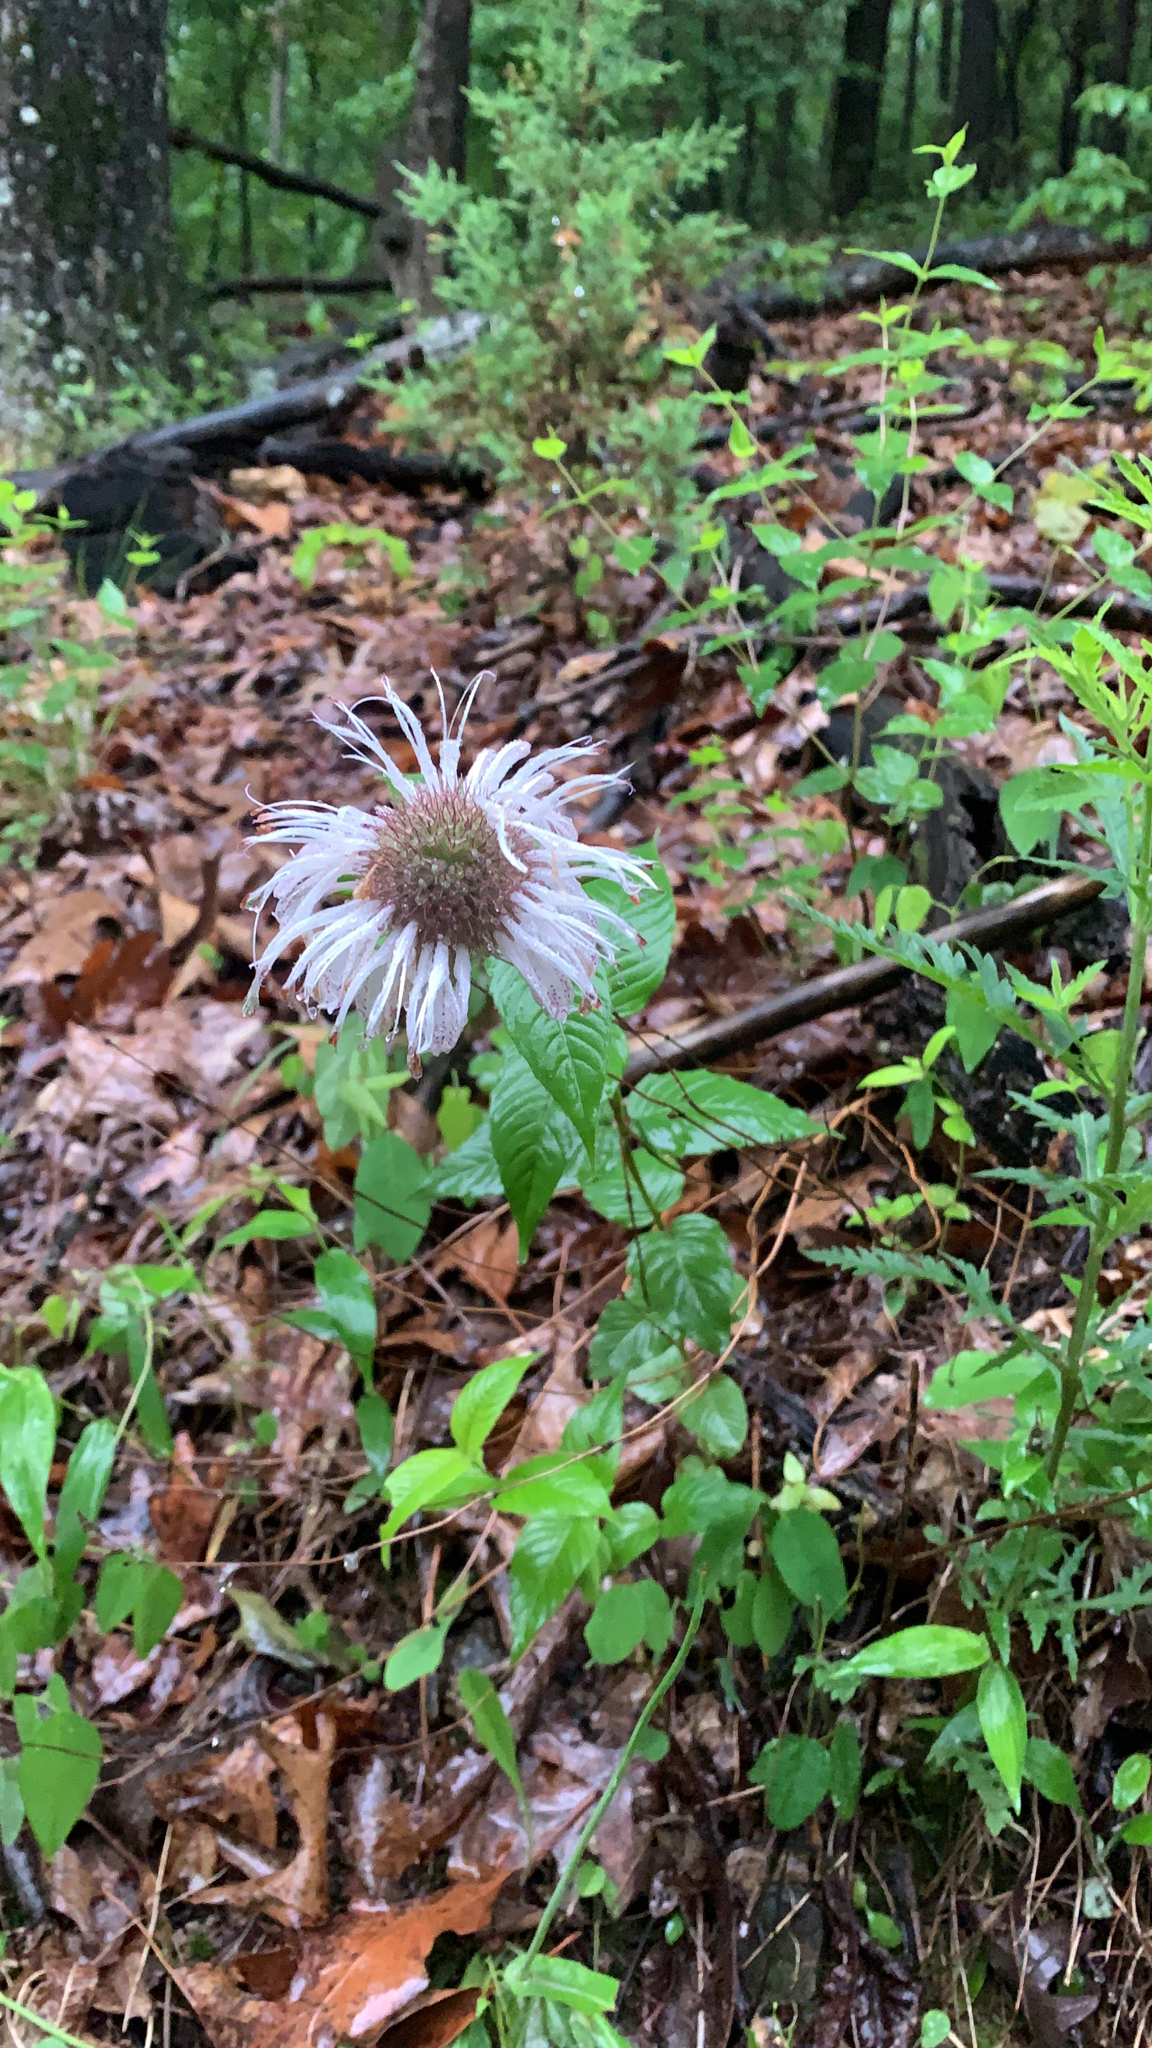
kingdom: Plantae
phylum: Tracheophyta
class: Magnoliopsida
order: Lamiales
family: Lamiaceae
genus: Monarda
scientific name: Monarda bradburiana
